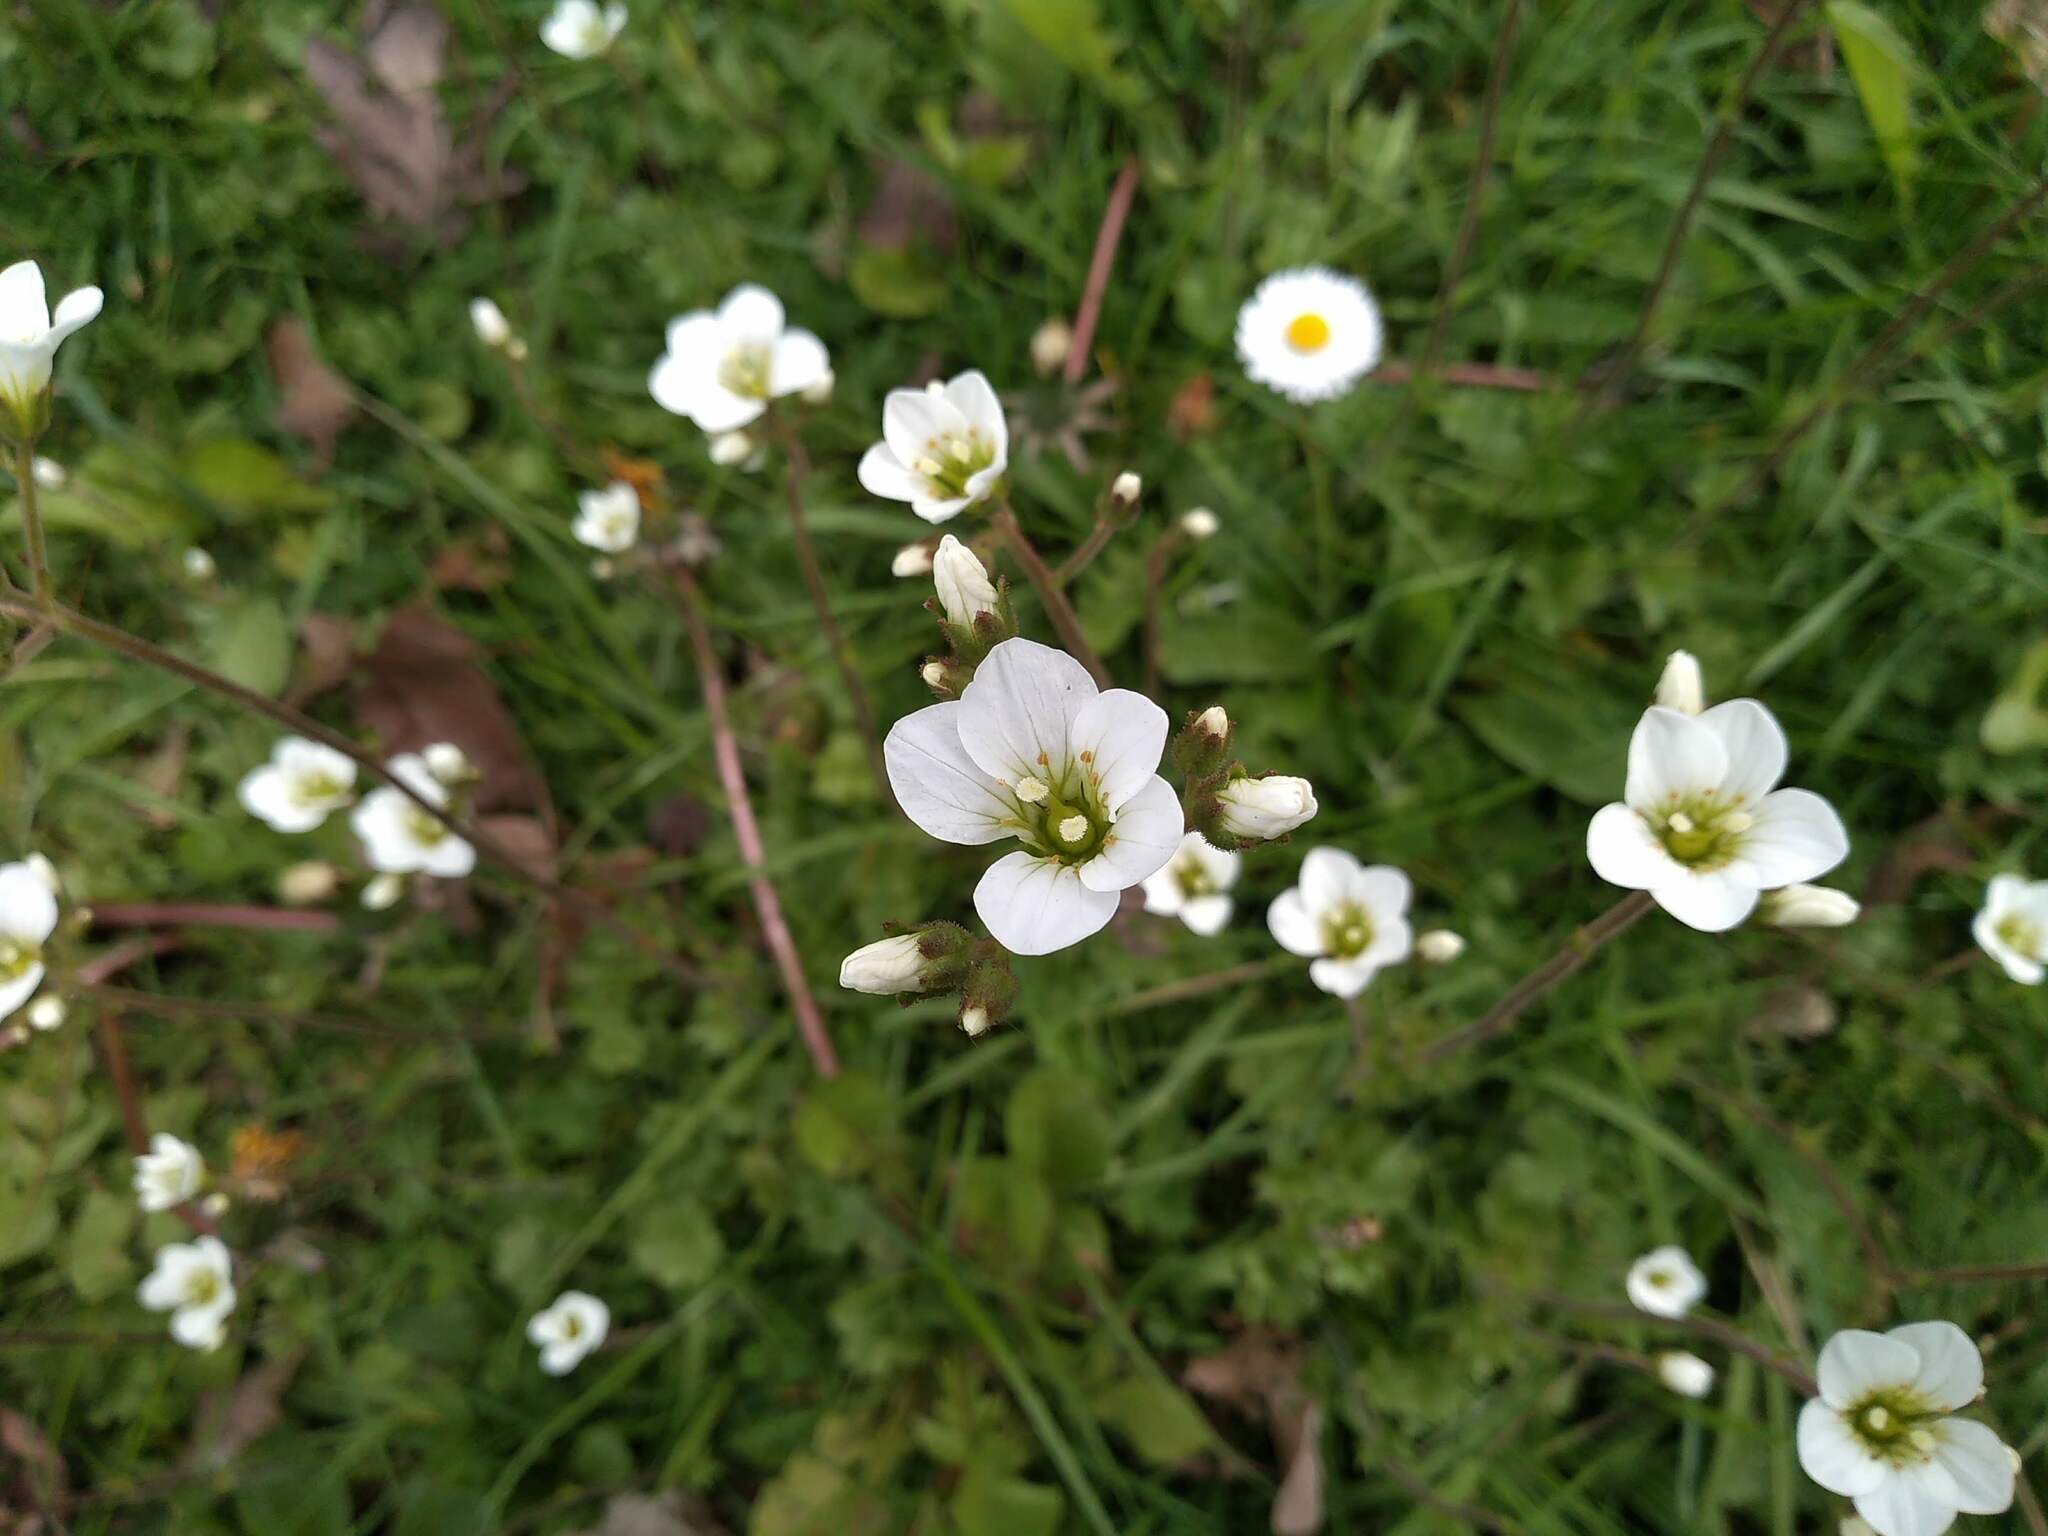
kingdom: Plantae
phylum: Tracheophyta
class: Magnoliopsida
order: Saxifragales
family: Saxifragaceae
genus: Saxifraga
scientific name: Saxifraga granulata
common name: Meadow saxifrage
